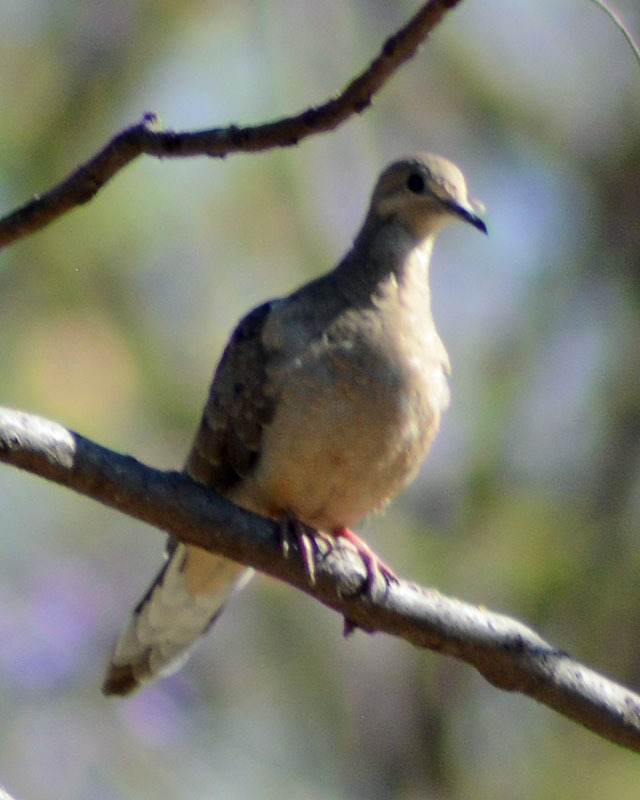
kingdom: Animalia
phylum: Chordata
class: Aves
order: Columbiformes
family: Columbidae
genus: Zenaida
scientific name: Zenaida macroura
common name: Mourning dove
